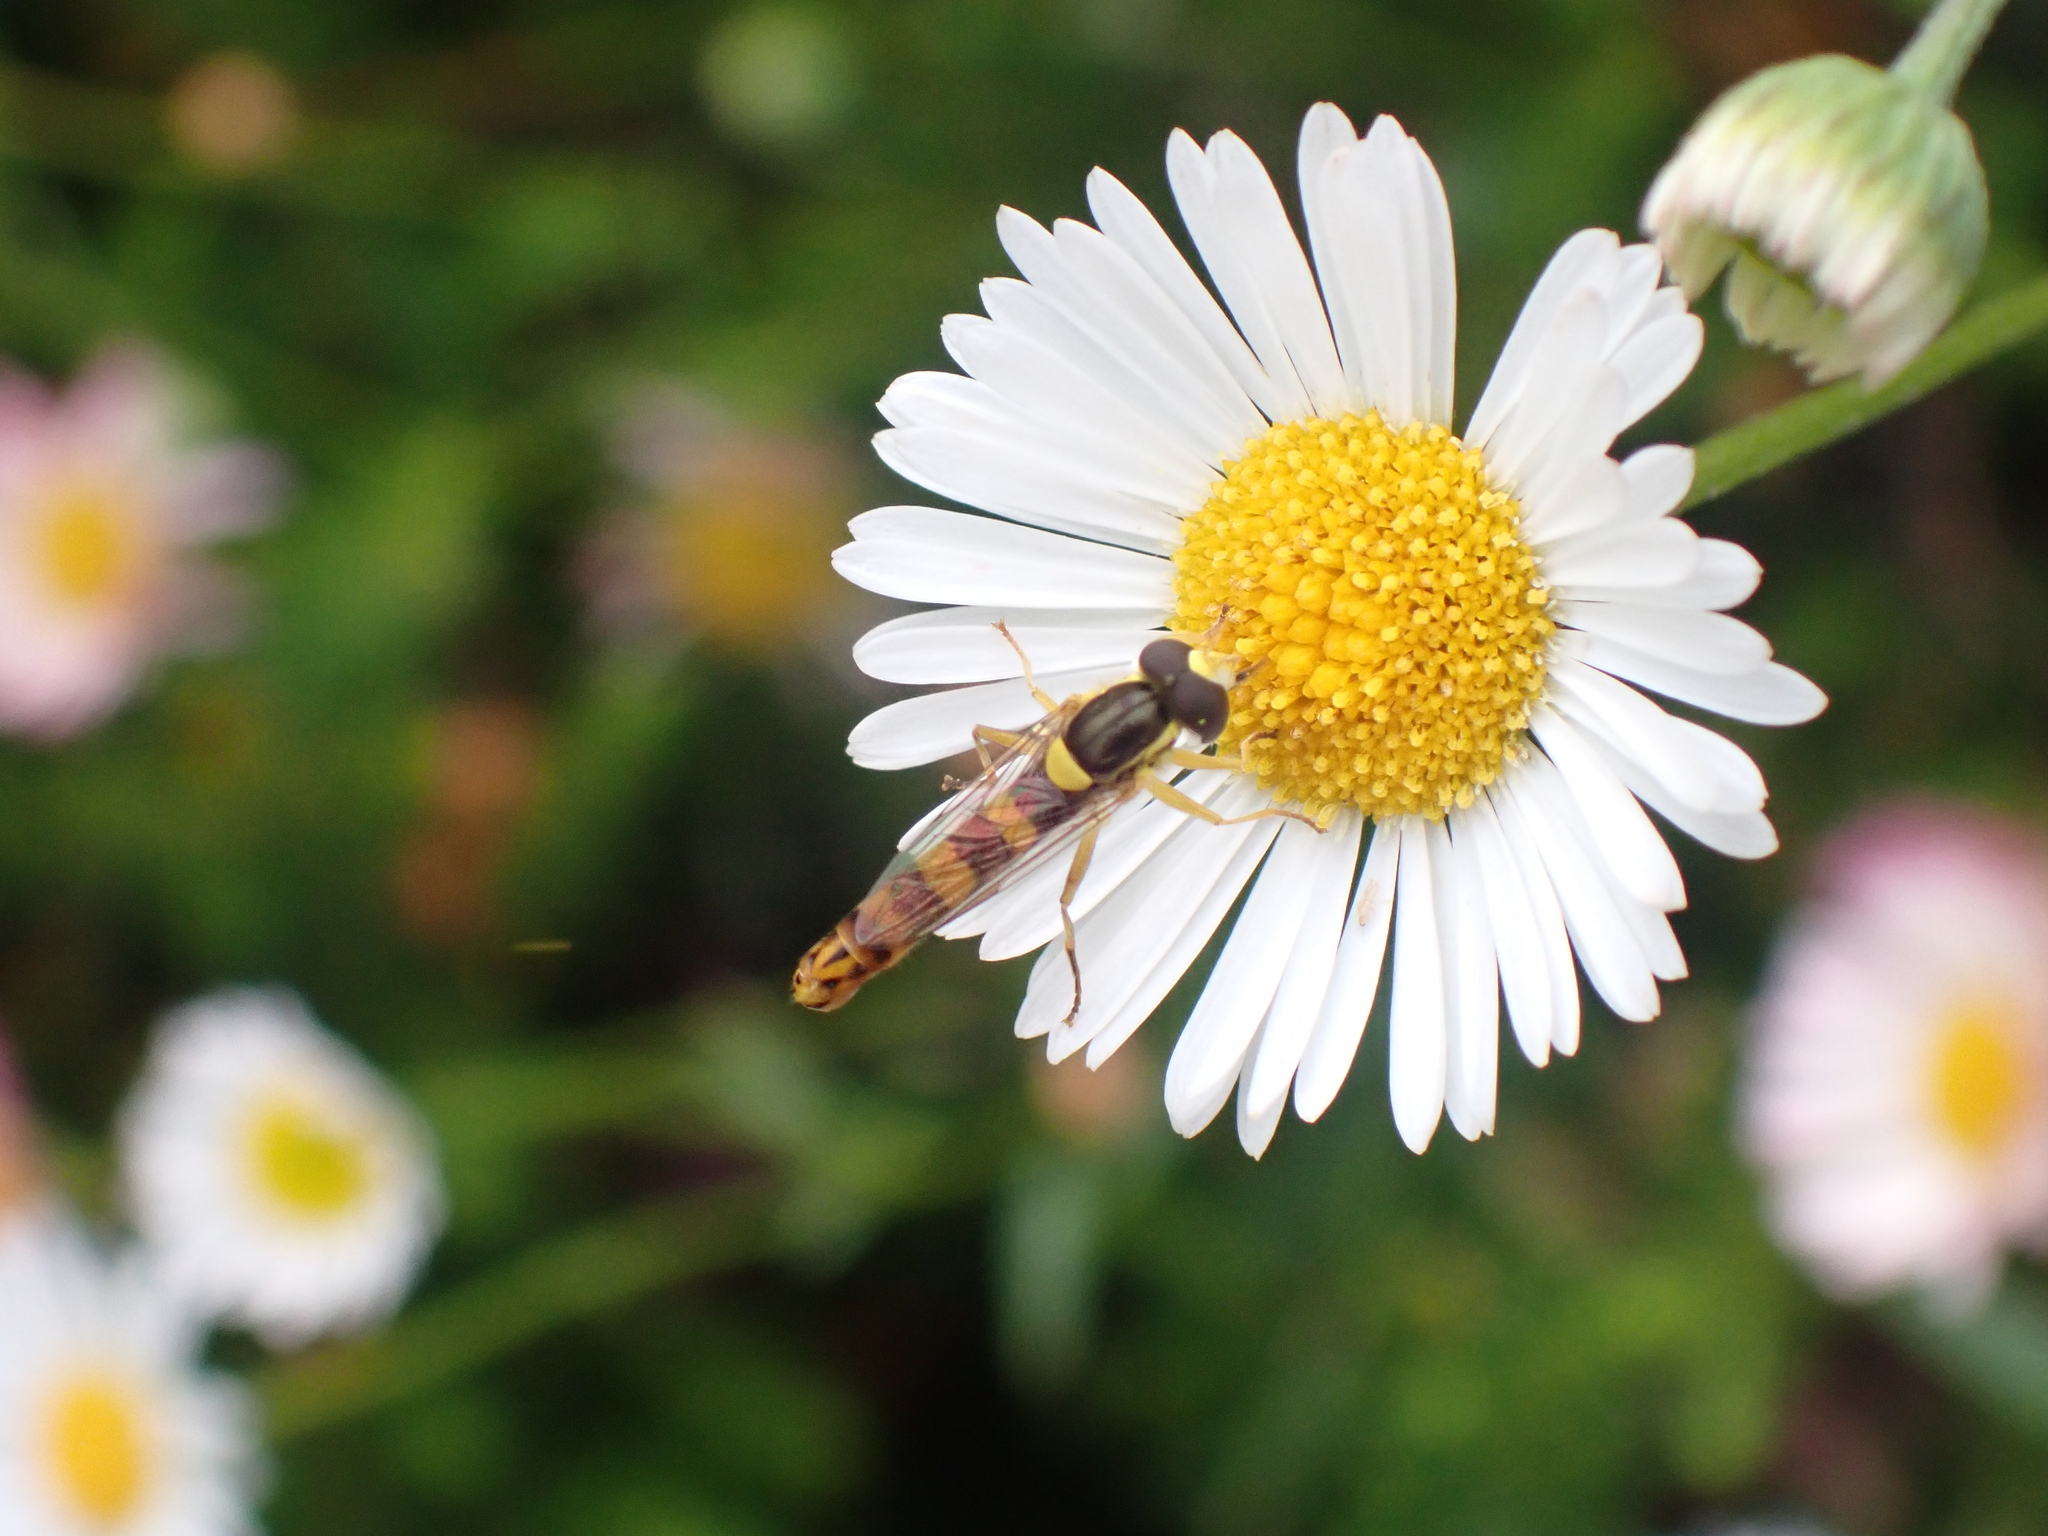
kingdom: Animalia
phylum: Arthropoda
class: Insecta
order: Diptera
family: Syrphidae
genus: Sphaerophoria
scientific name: Sphaerophoria scripta
